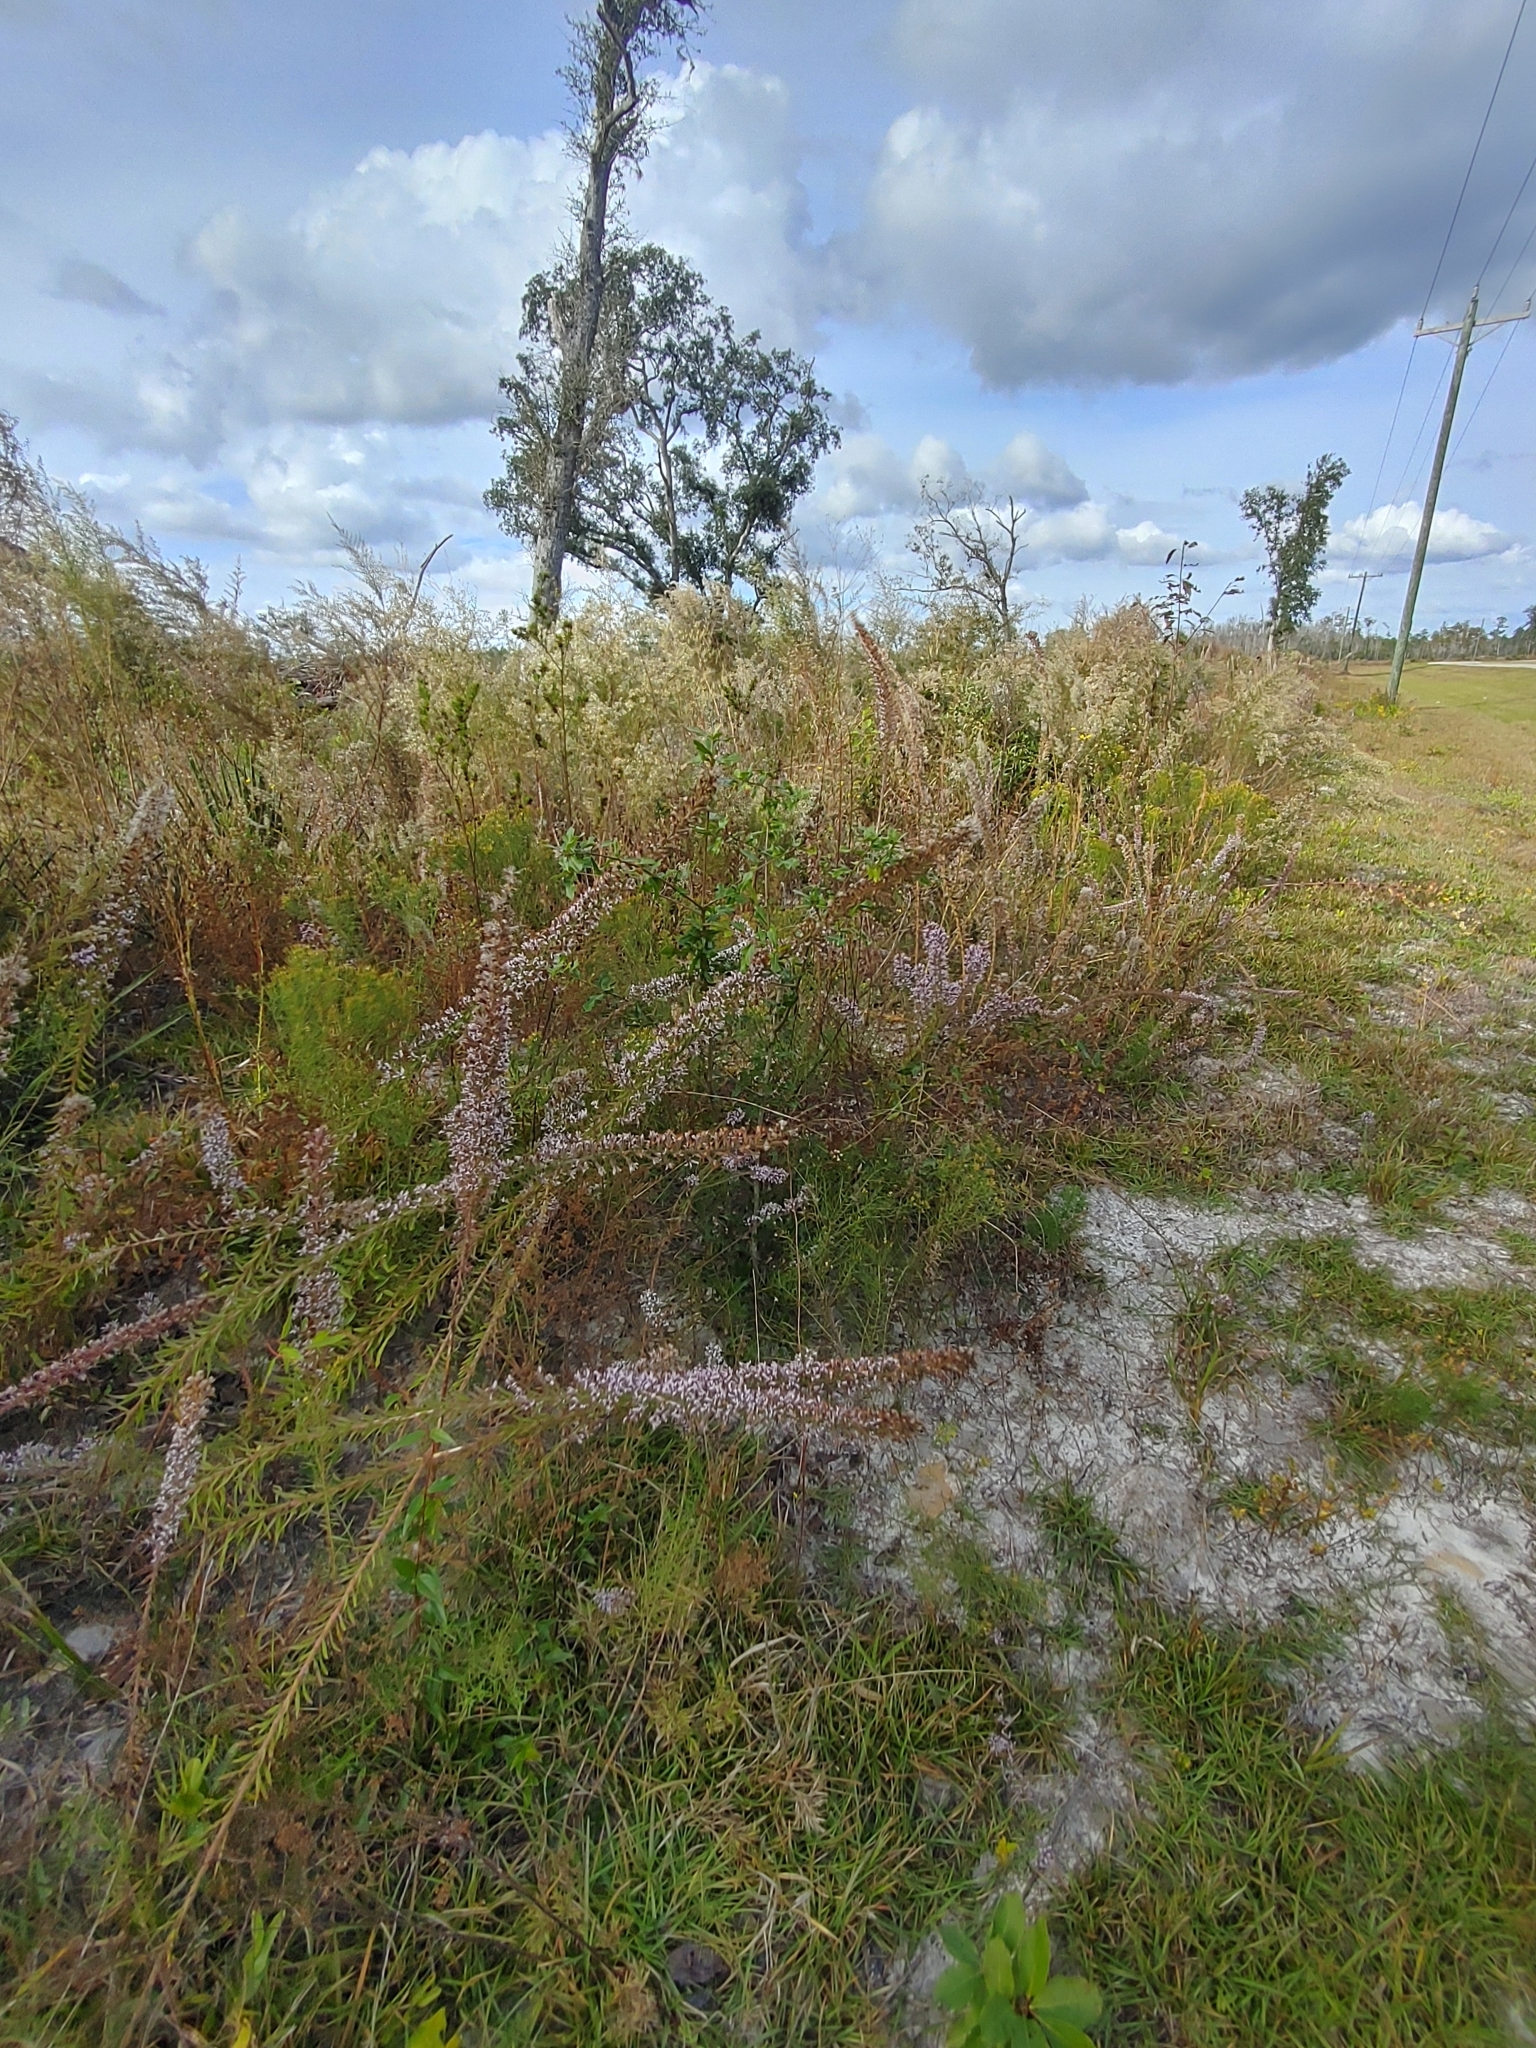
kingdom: Plantae
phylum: Tracheophyta
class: Magnoliopsida
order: Asterales
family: Asteraceae
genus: Liatris
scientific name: Liatris elegans
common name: Pinkscale gayfeather
